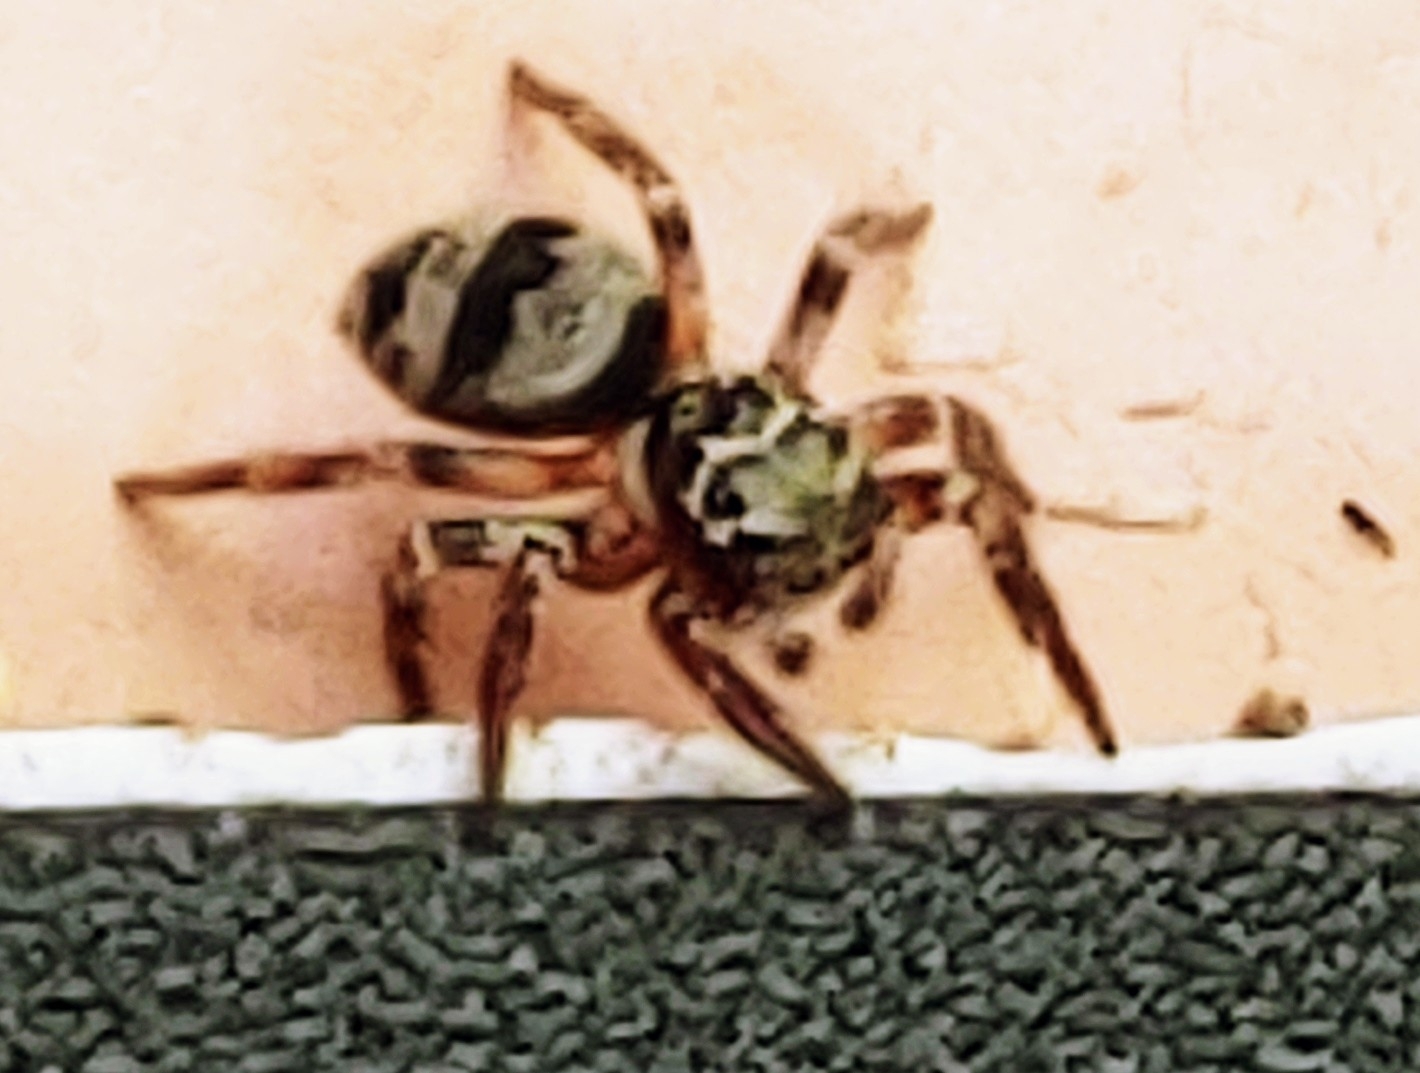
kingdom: Animalia
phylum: Arthropoda
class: Arachnida
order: Araneae
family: Salticidae
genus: Corythalia
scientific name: Corythalia conferta
